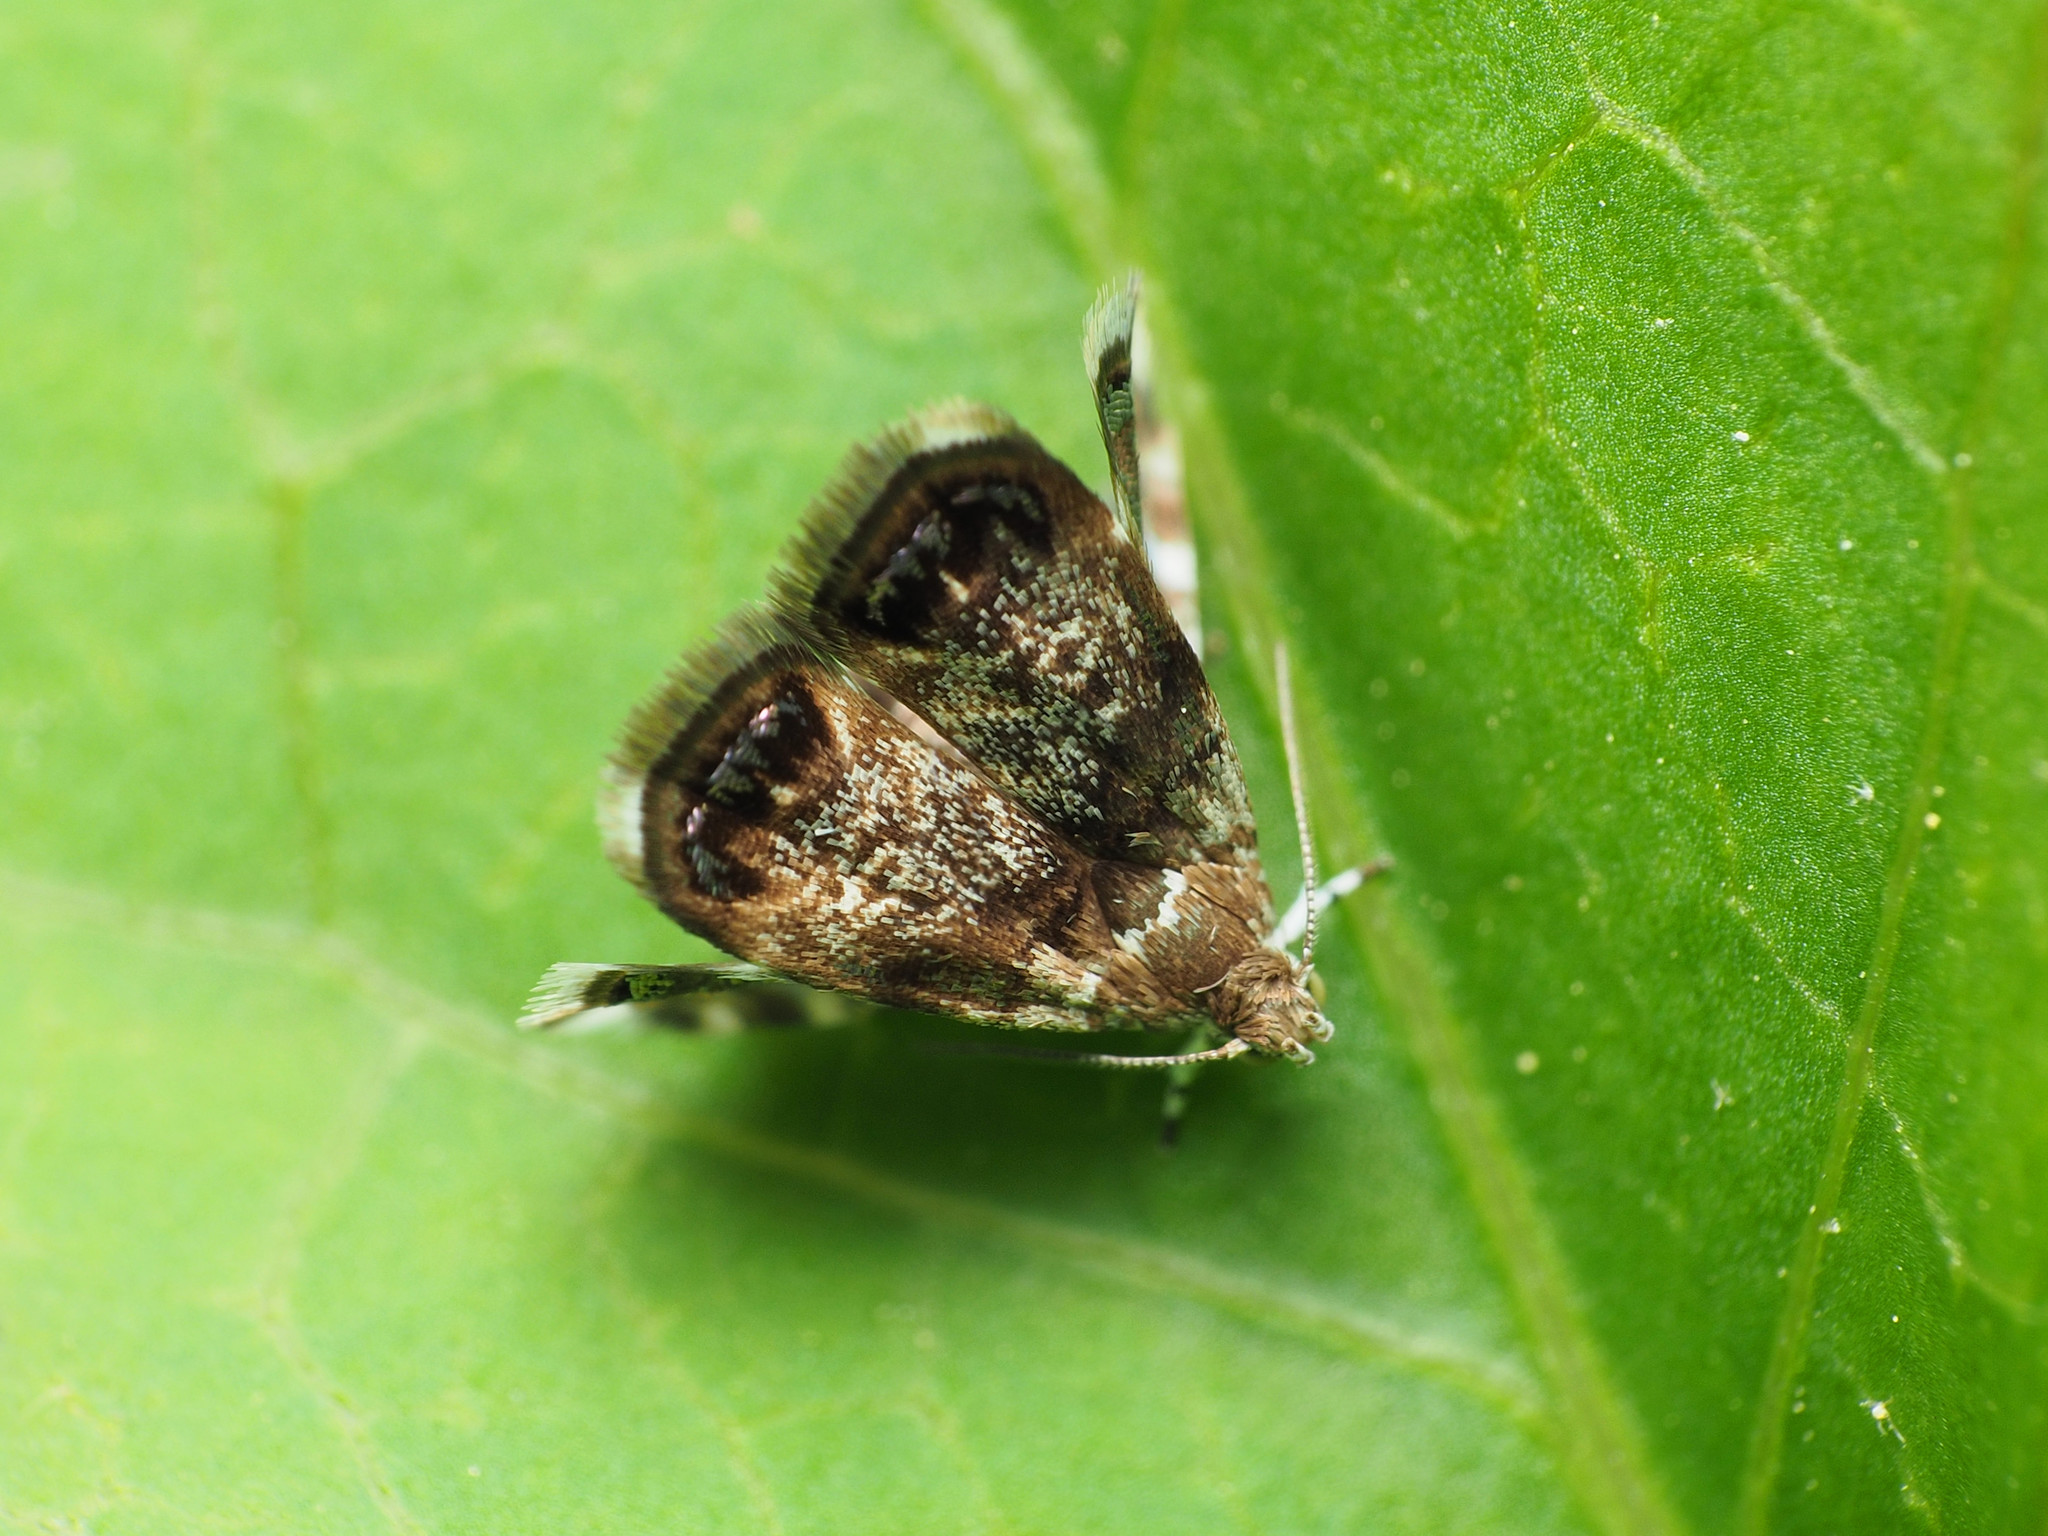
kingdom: Animalia
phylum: Arthropoda
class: Insecta
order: Lepidoptera
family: Choreutidae
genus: Brenthia
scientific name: Brenthia pavonacella
